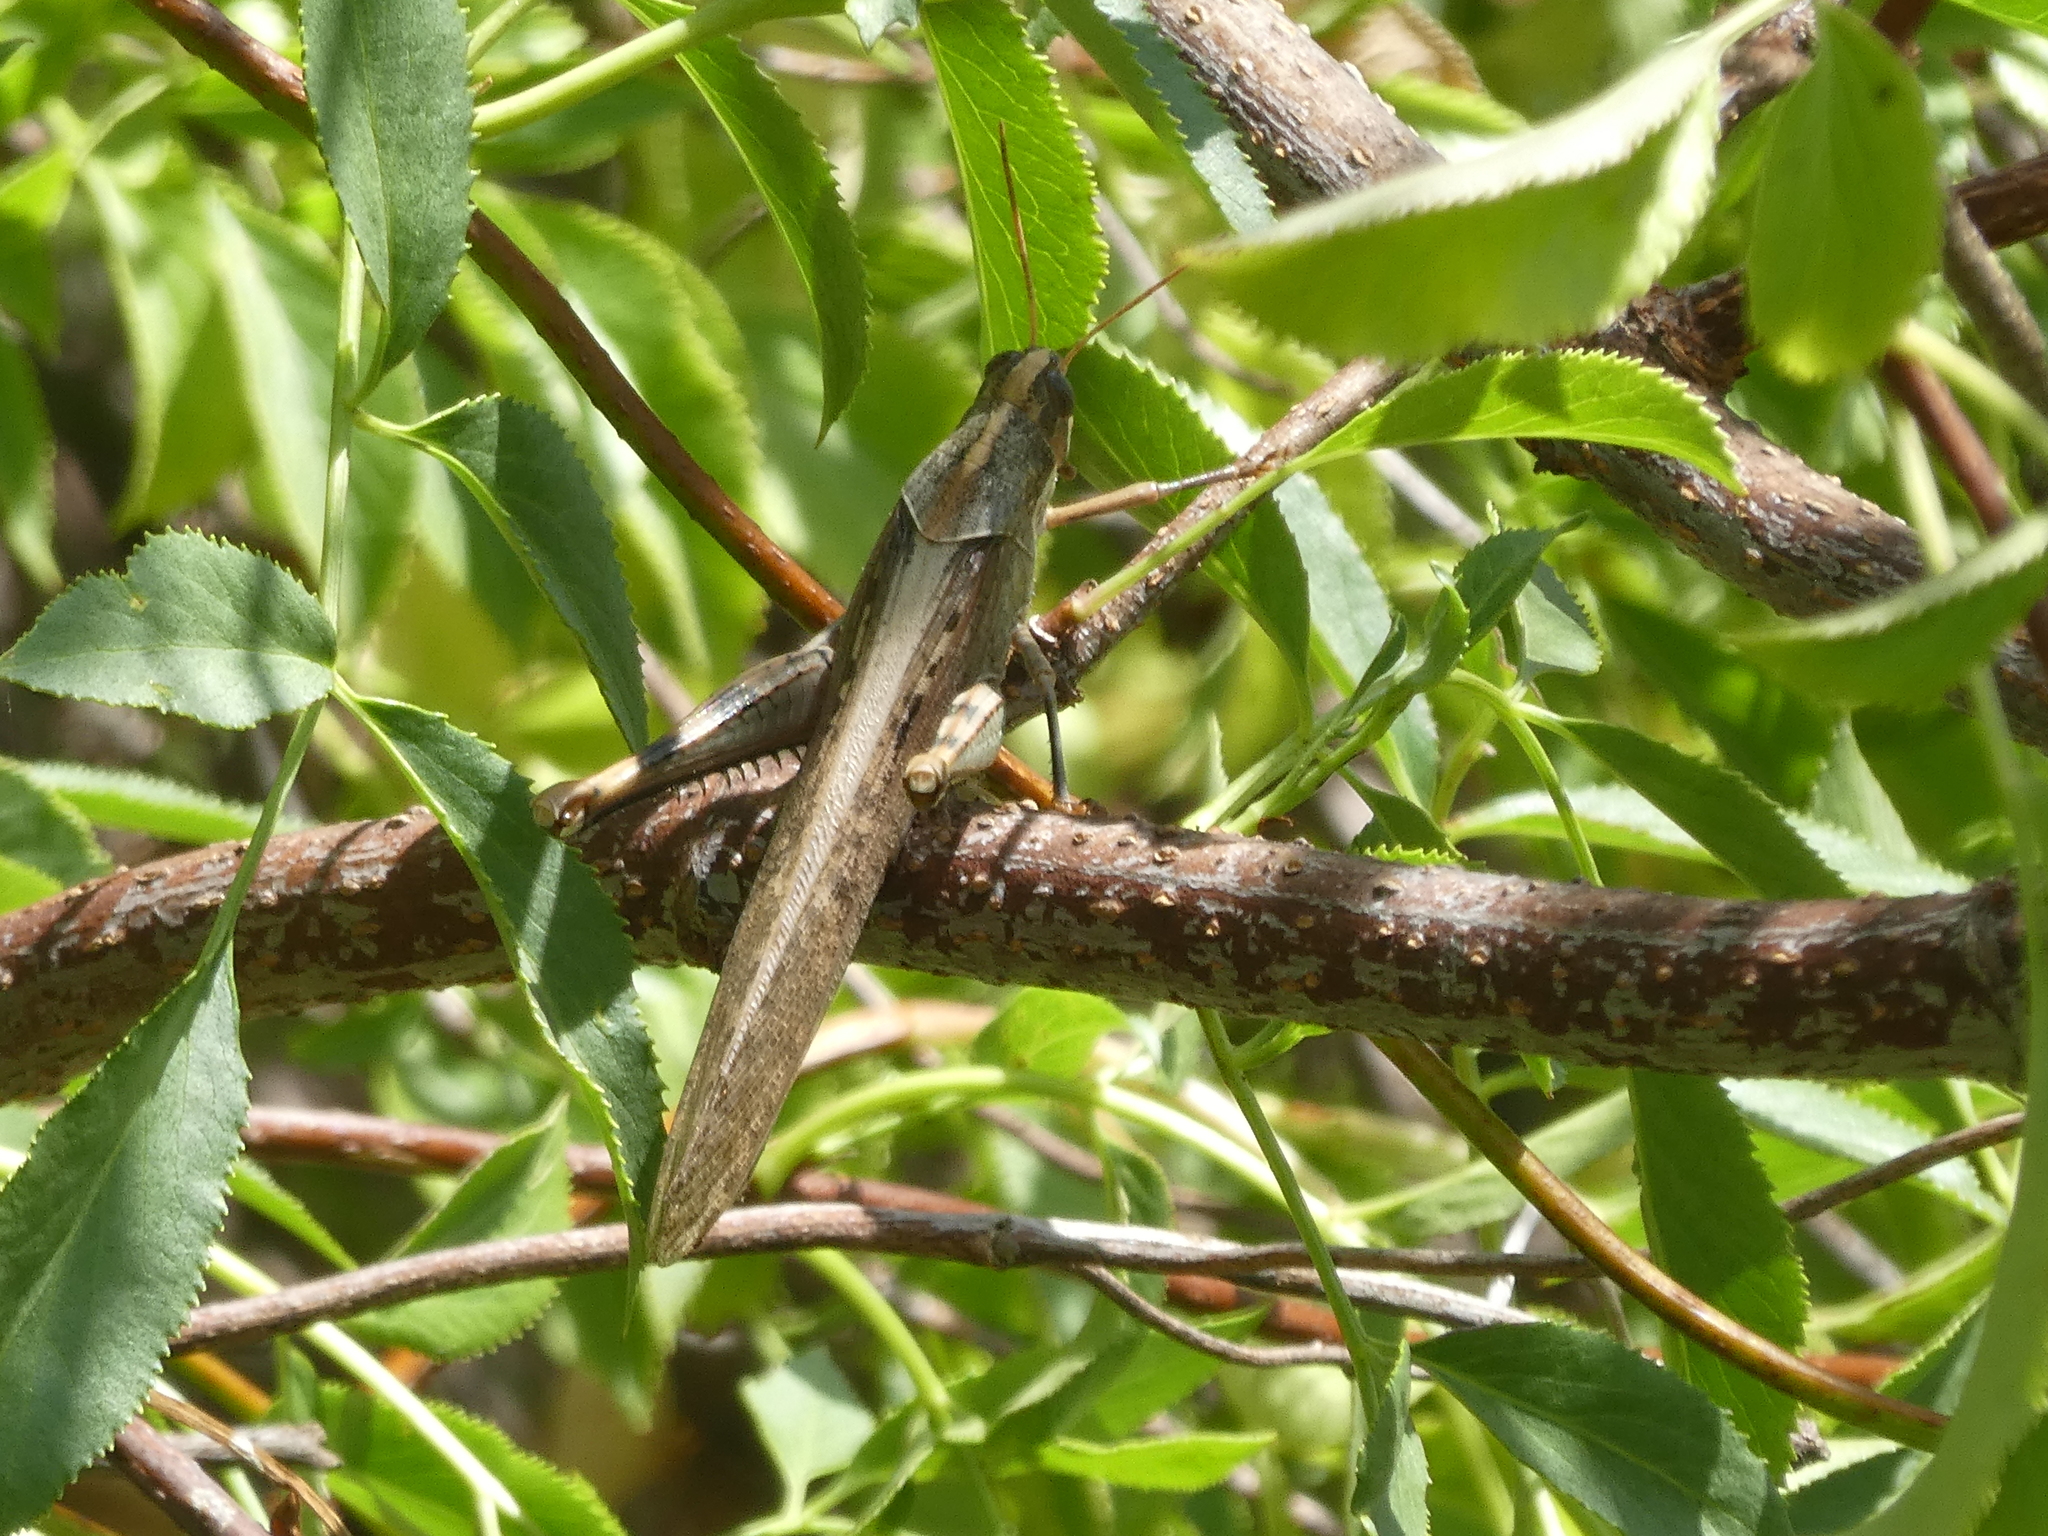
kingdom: Animalia
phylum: Arthropoda
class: Insecta
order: Orthoptera
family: Acrididae
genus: Schistocerca
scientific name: Schistocerca nitens
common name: Vagrant grasshopper
